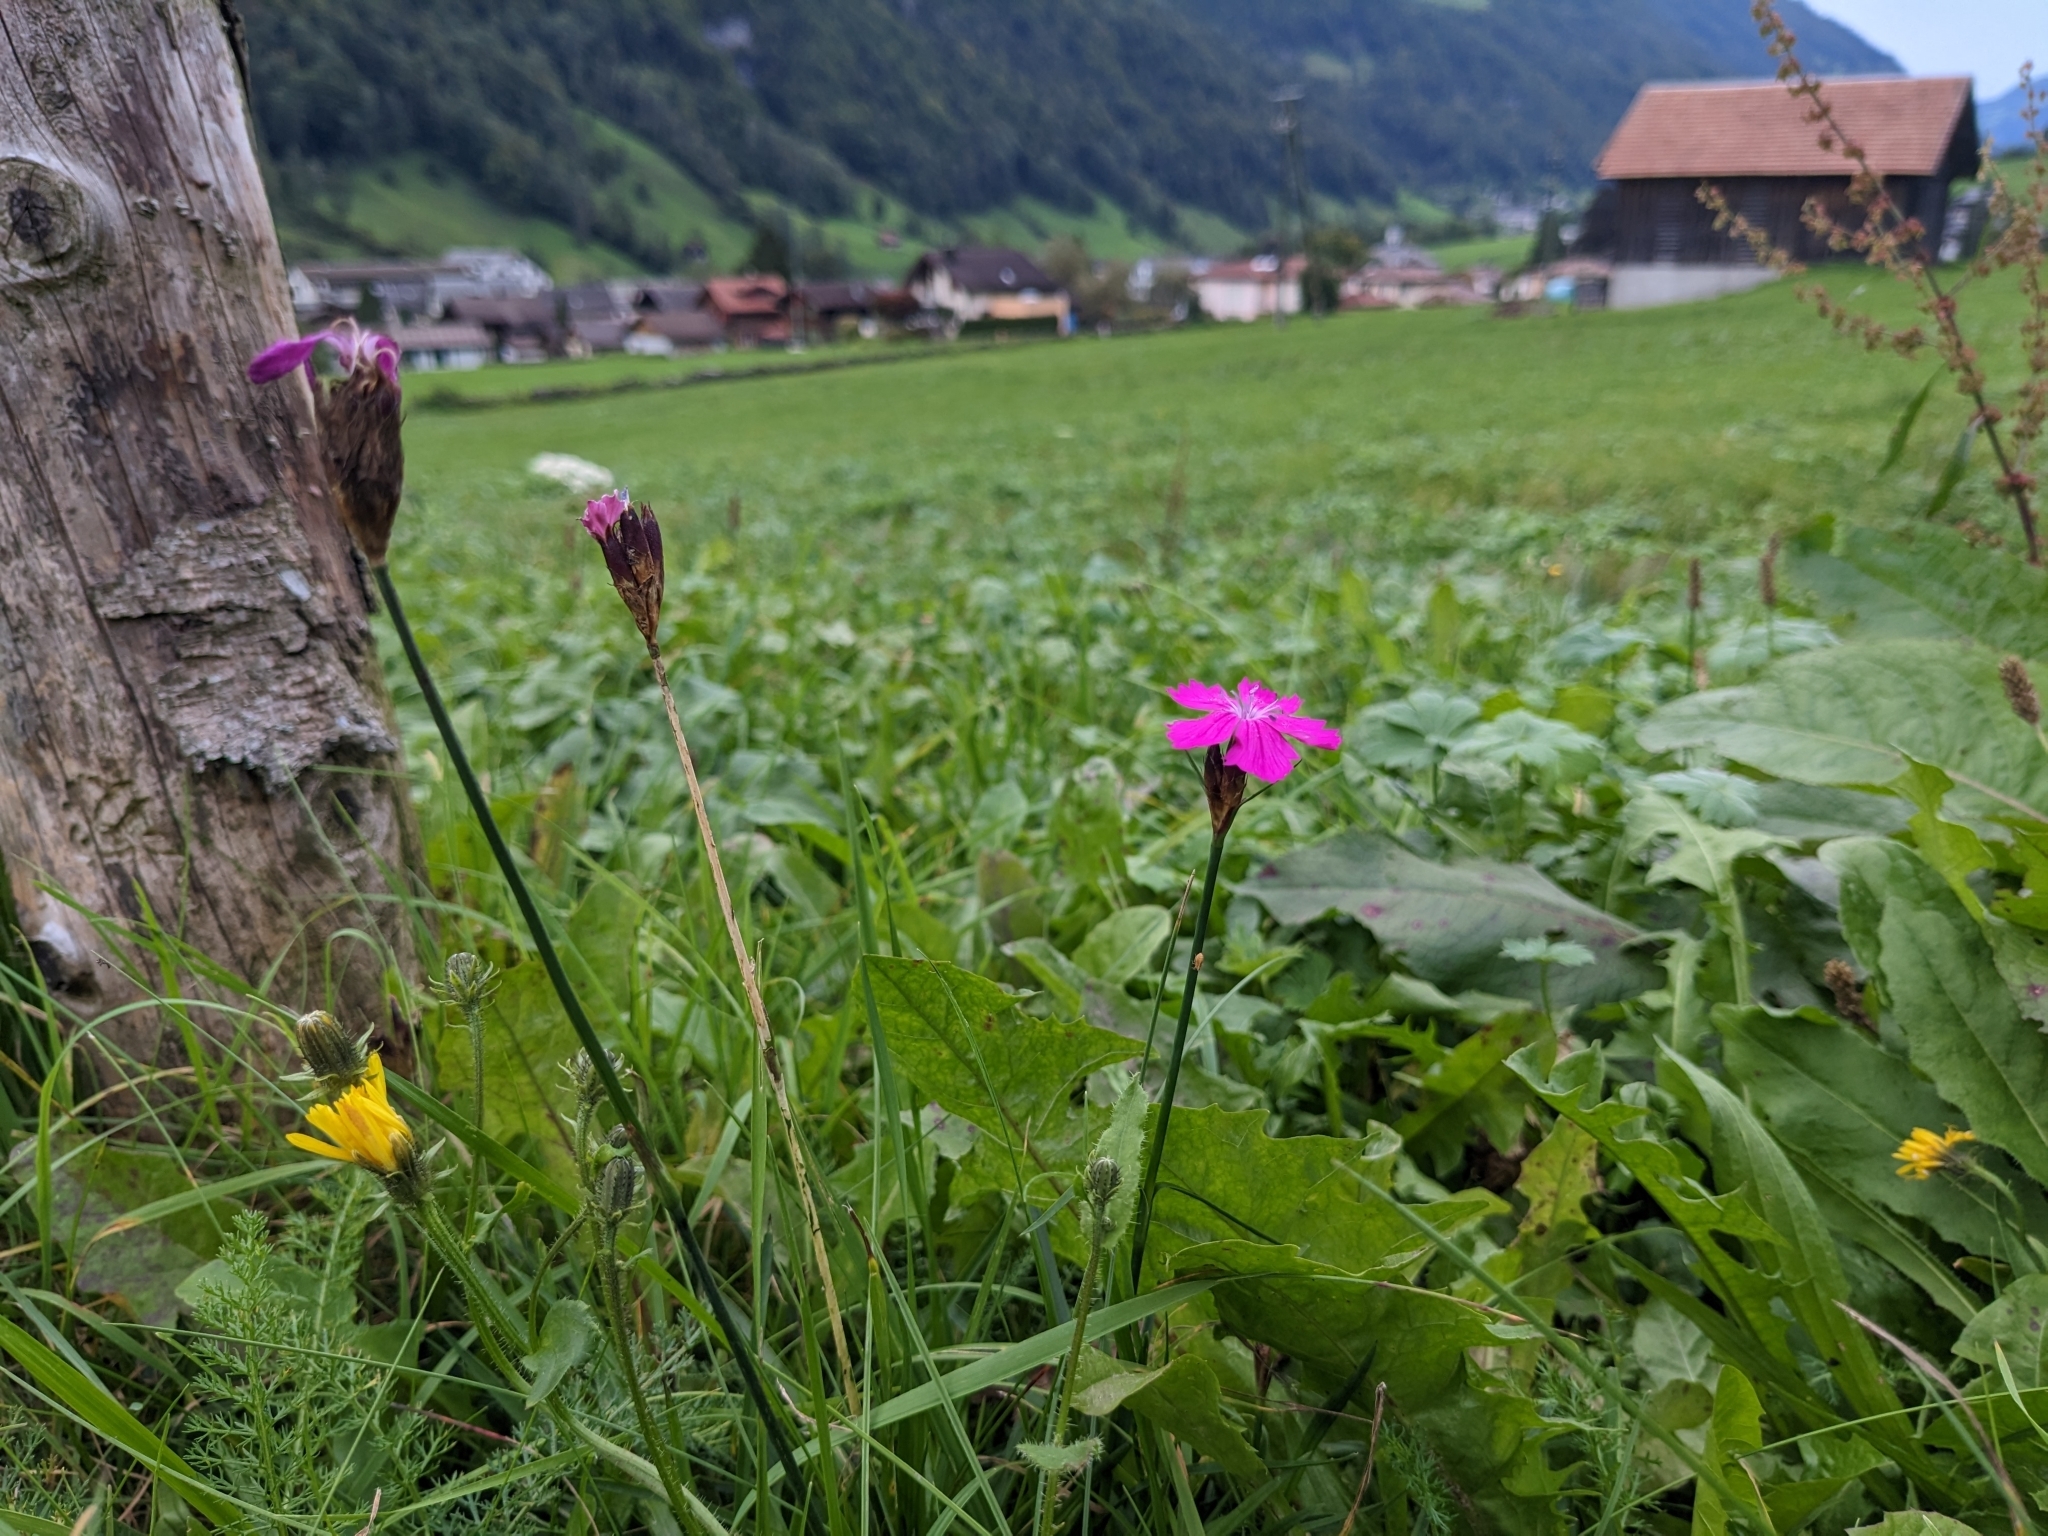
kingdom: Plantae
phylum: Tracheophyta
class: Magnoliopsida
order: Caryophyllales
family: Caryophyllaceae
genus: Dianthus
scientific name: Dianthus carthusianorum
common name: Carthusian pink
